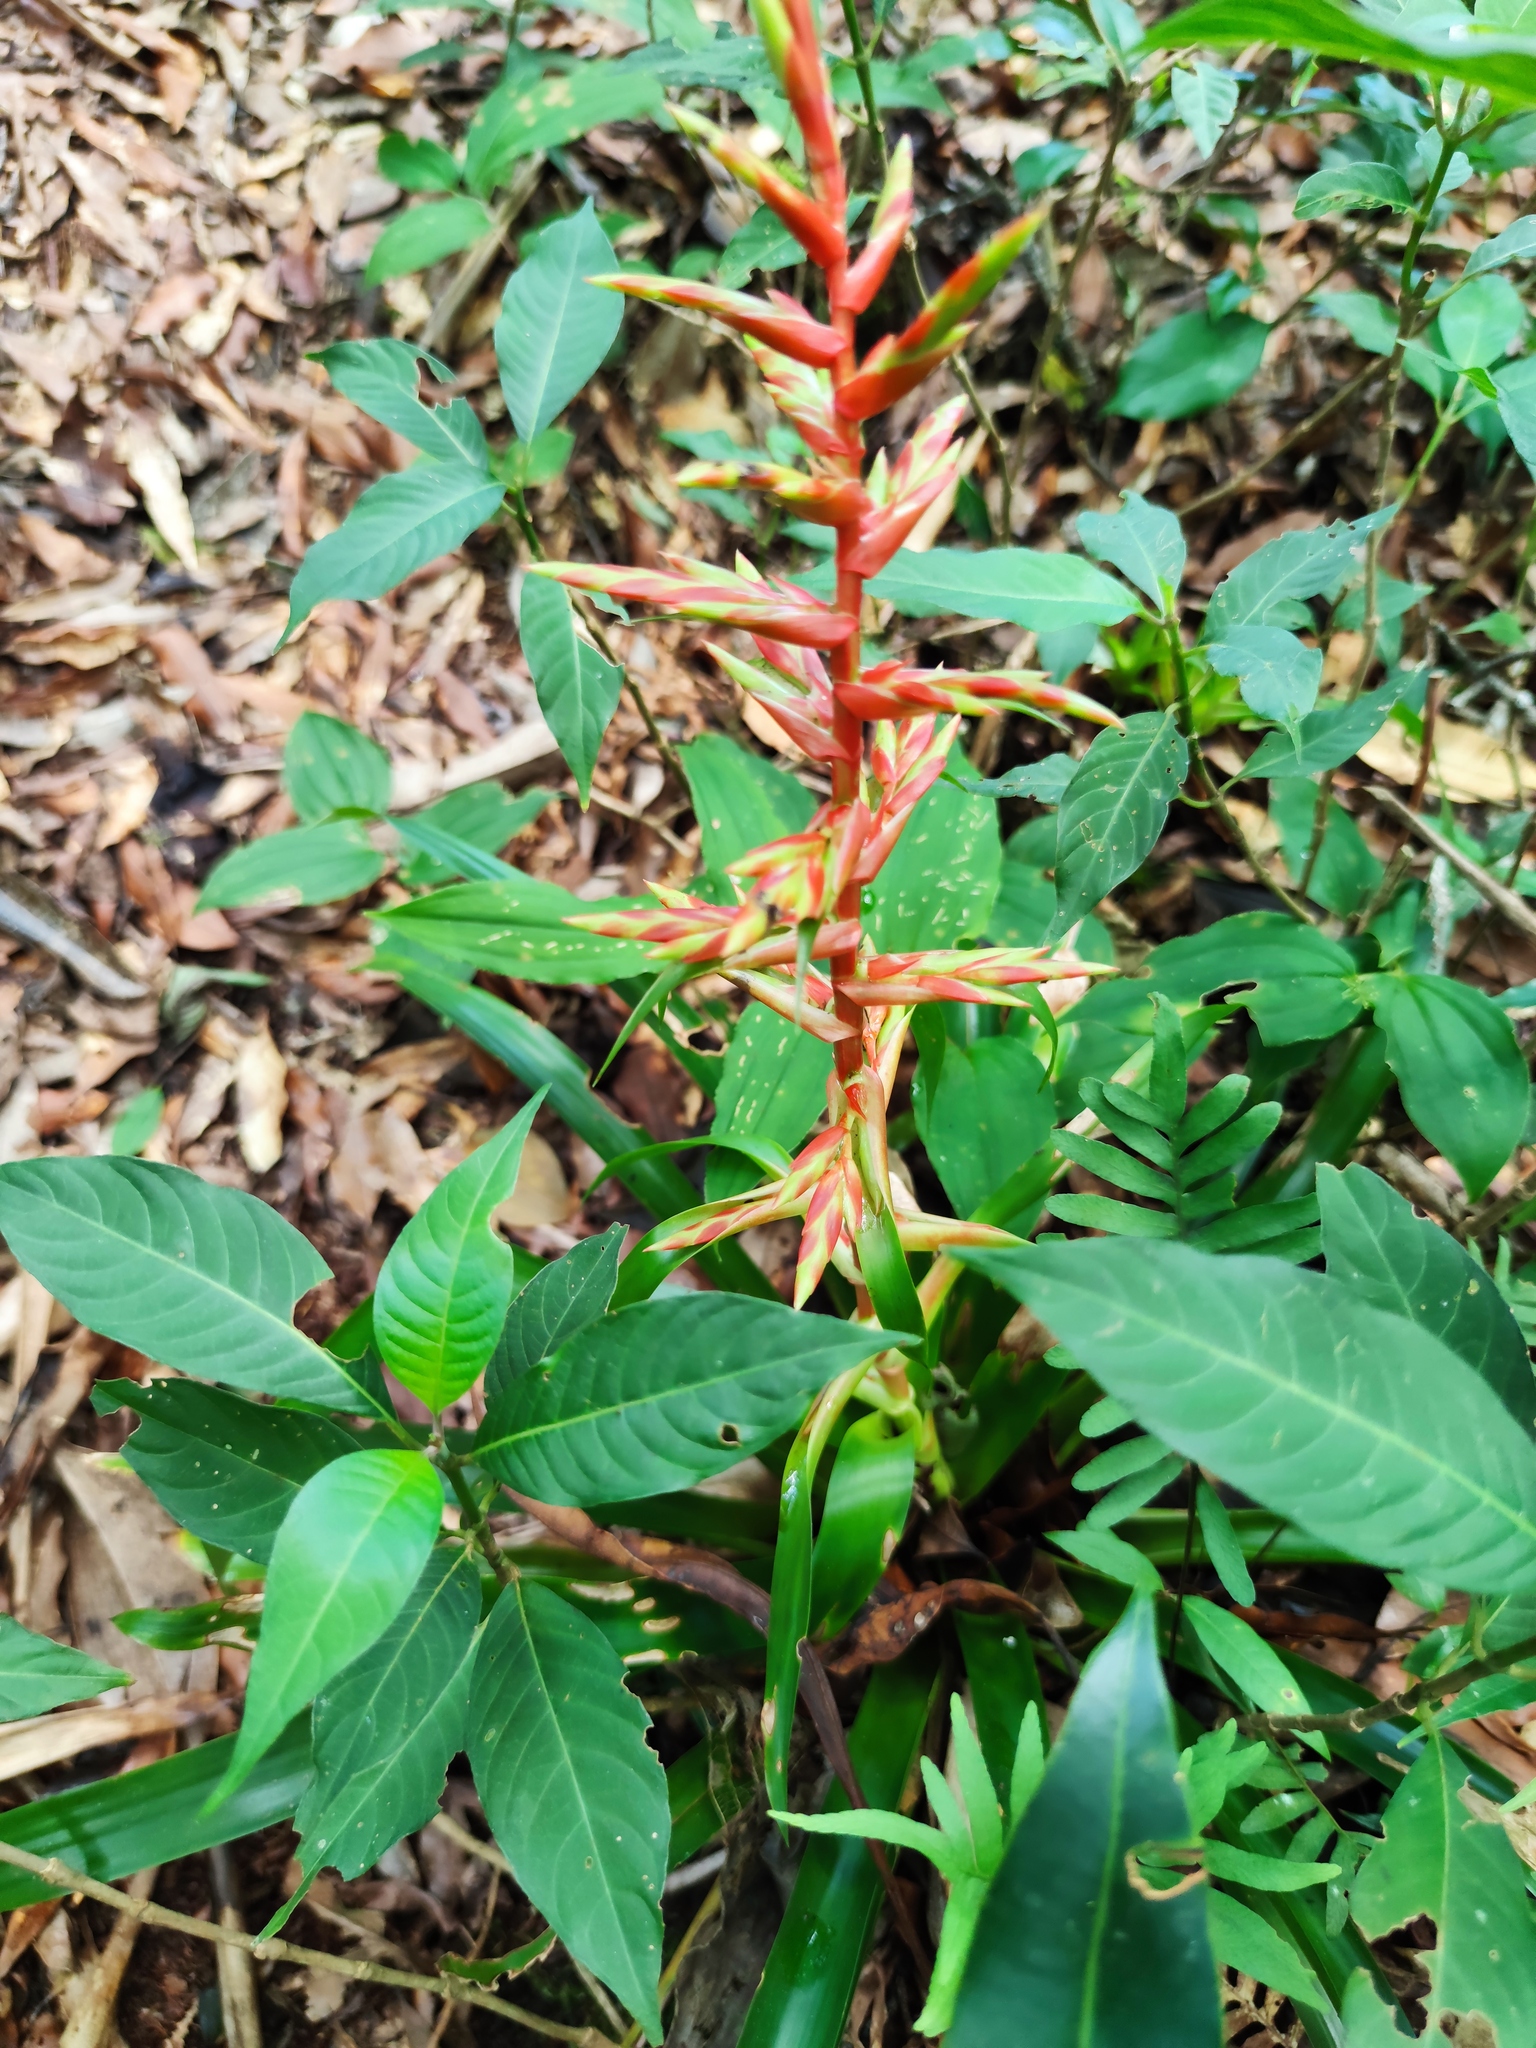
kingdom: Plantae
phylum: Tracheophyta
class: Liliopsida
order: Poales
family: Bromeliaceae
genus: Tillandsia
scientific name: Tillandsia guatemalensis
